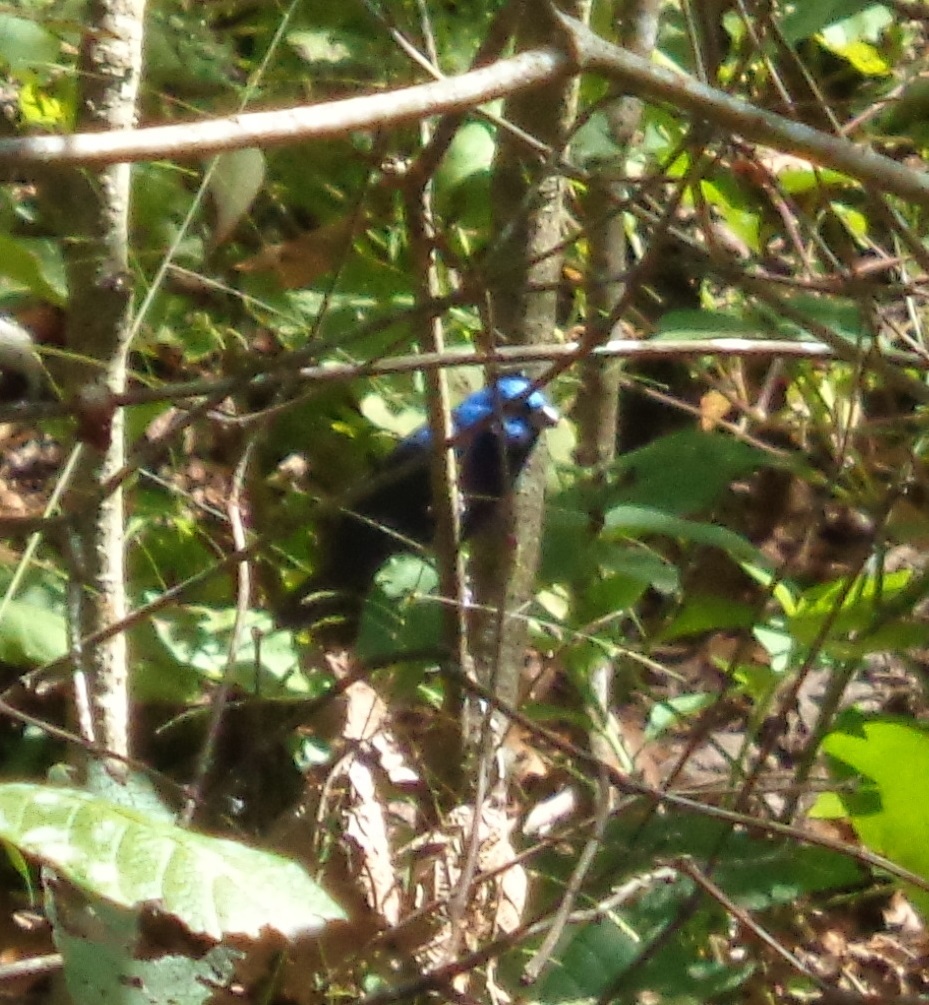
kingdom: Animalia
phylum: Chordata
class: Aves
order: Passeriformes
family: Cardinalidae
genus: Cyanocompsa
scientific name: Cyanocompsa parellina
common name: Blue bunting
